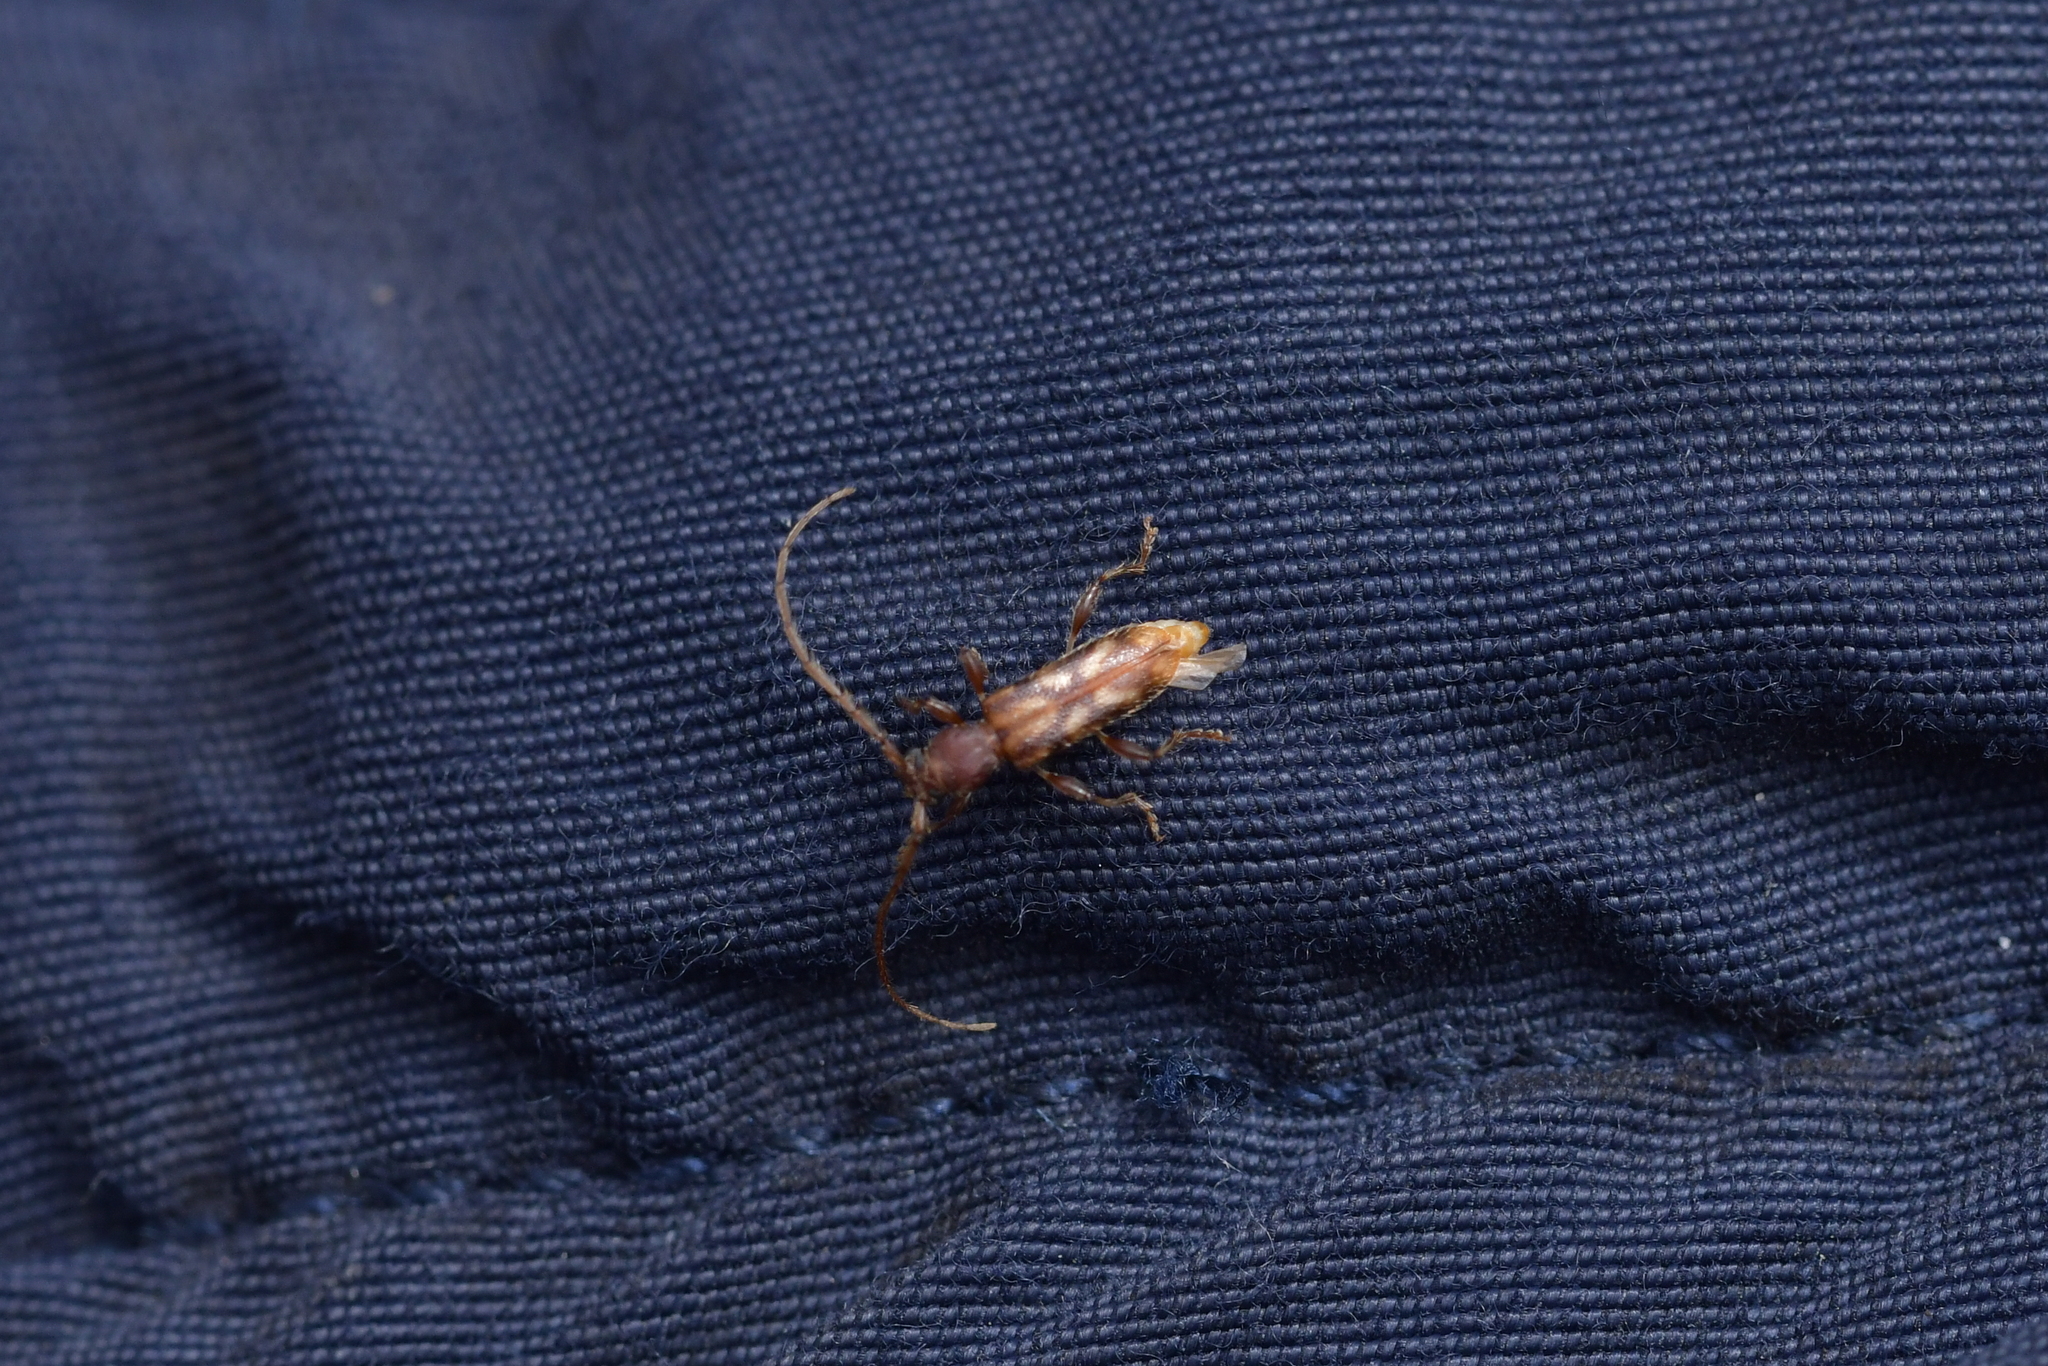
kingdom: Animalia
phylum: Arthropoda
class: Insecta
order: Coleoptera
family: Cerambycidae
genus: Bethelium
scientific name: Bethelium signiferum
